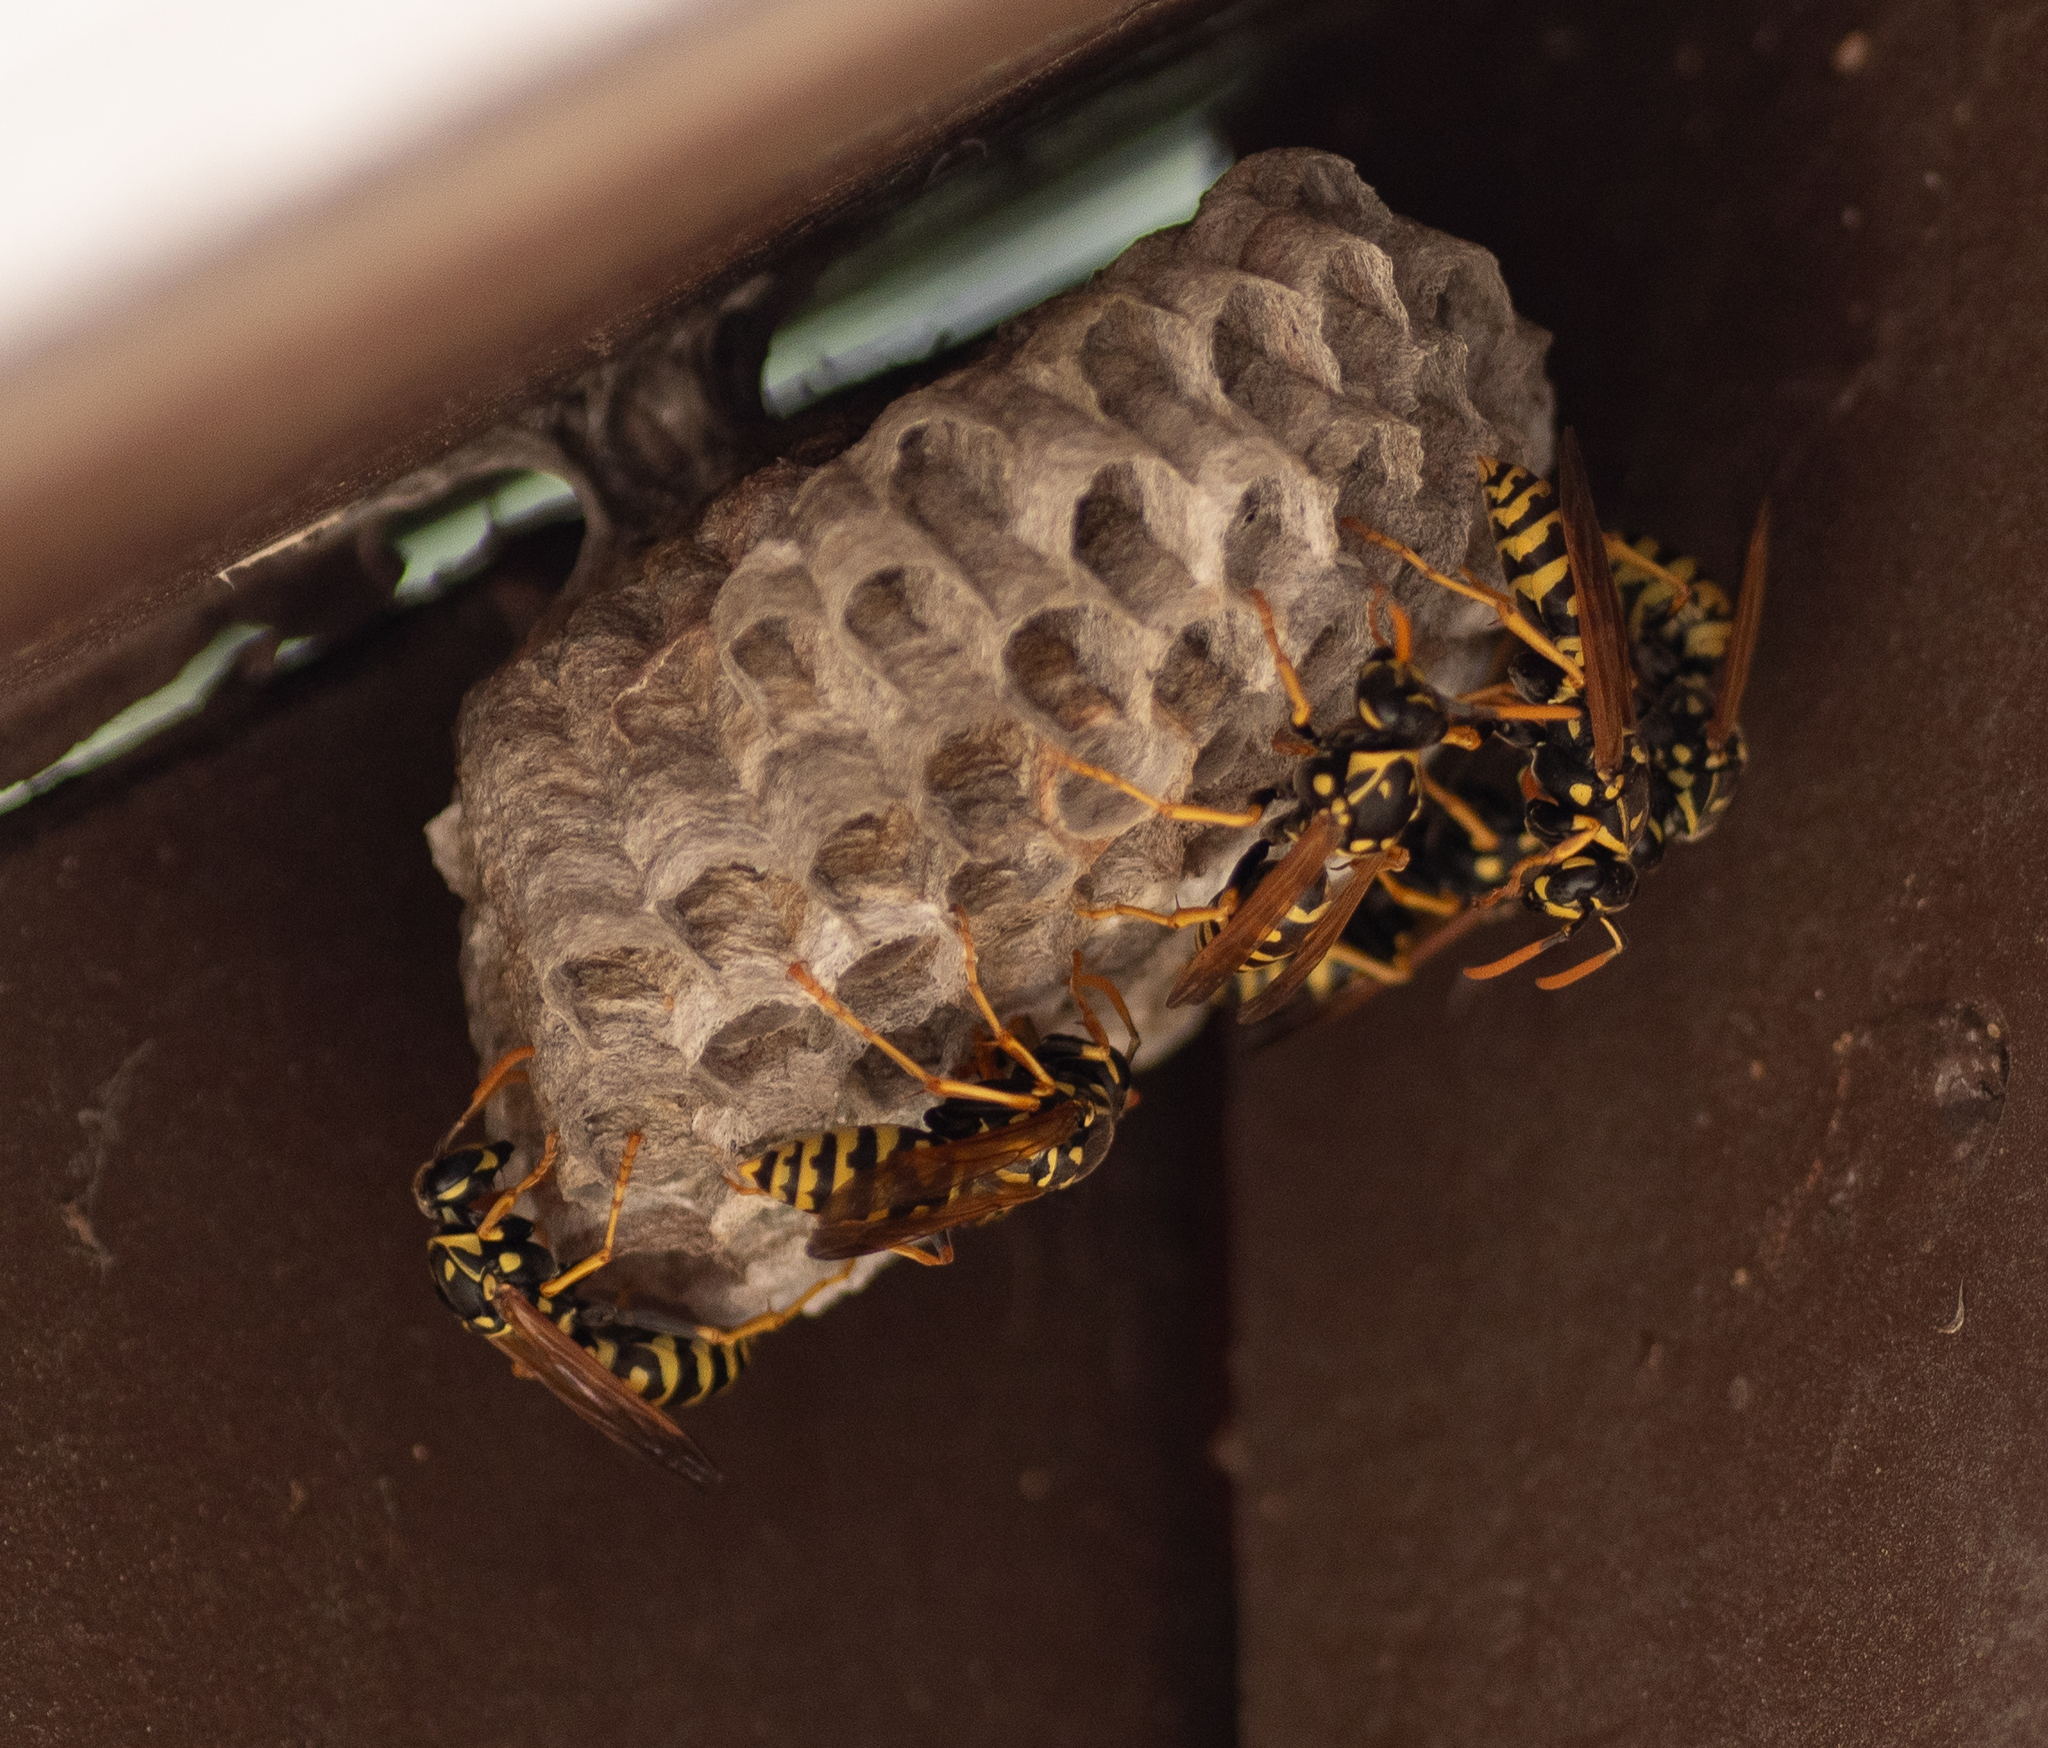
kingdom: Animalia
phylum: Arthropoda
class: Insecta
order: Hymenoptera
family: Eumenidae
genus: Polistes
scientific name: Polistes dominula
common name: Paper wasp
